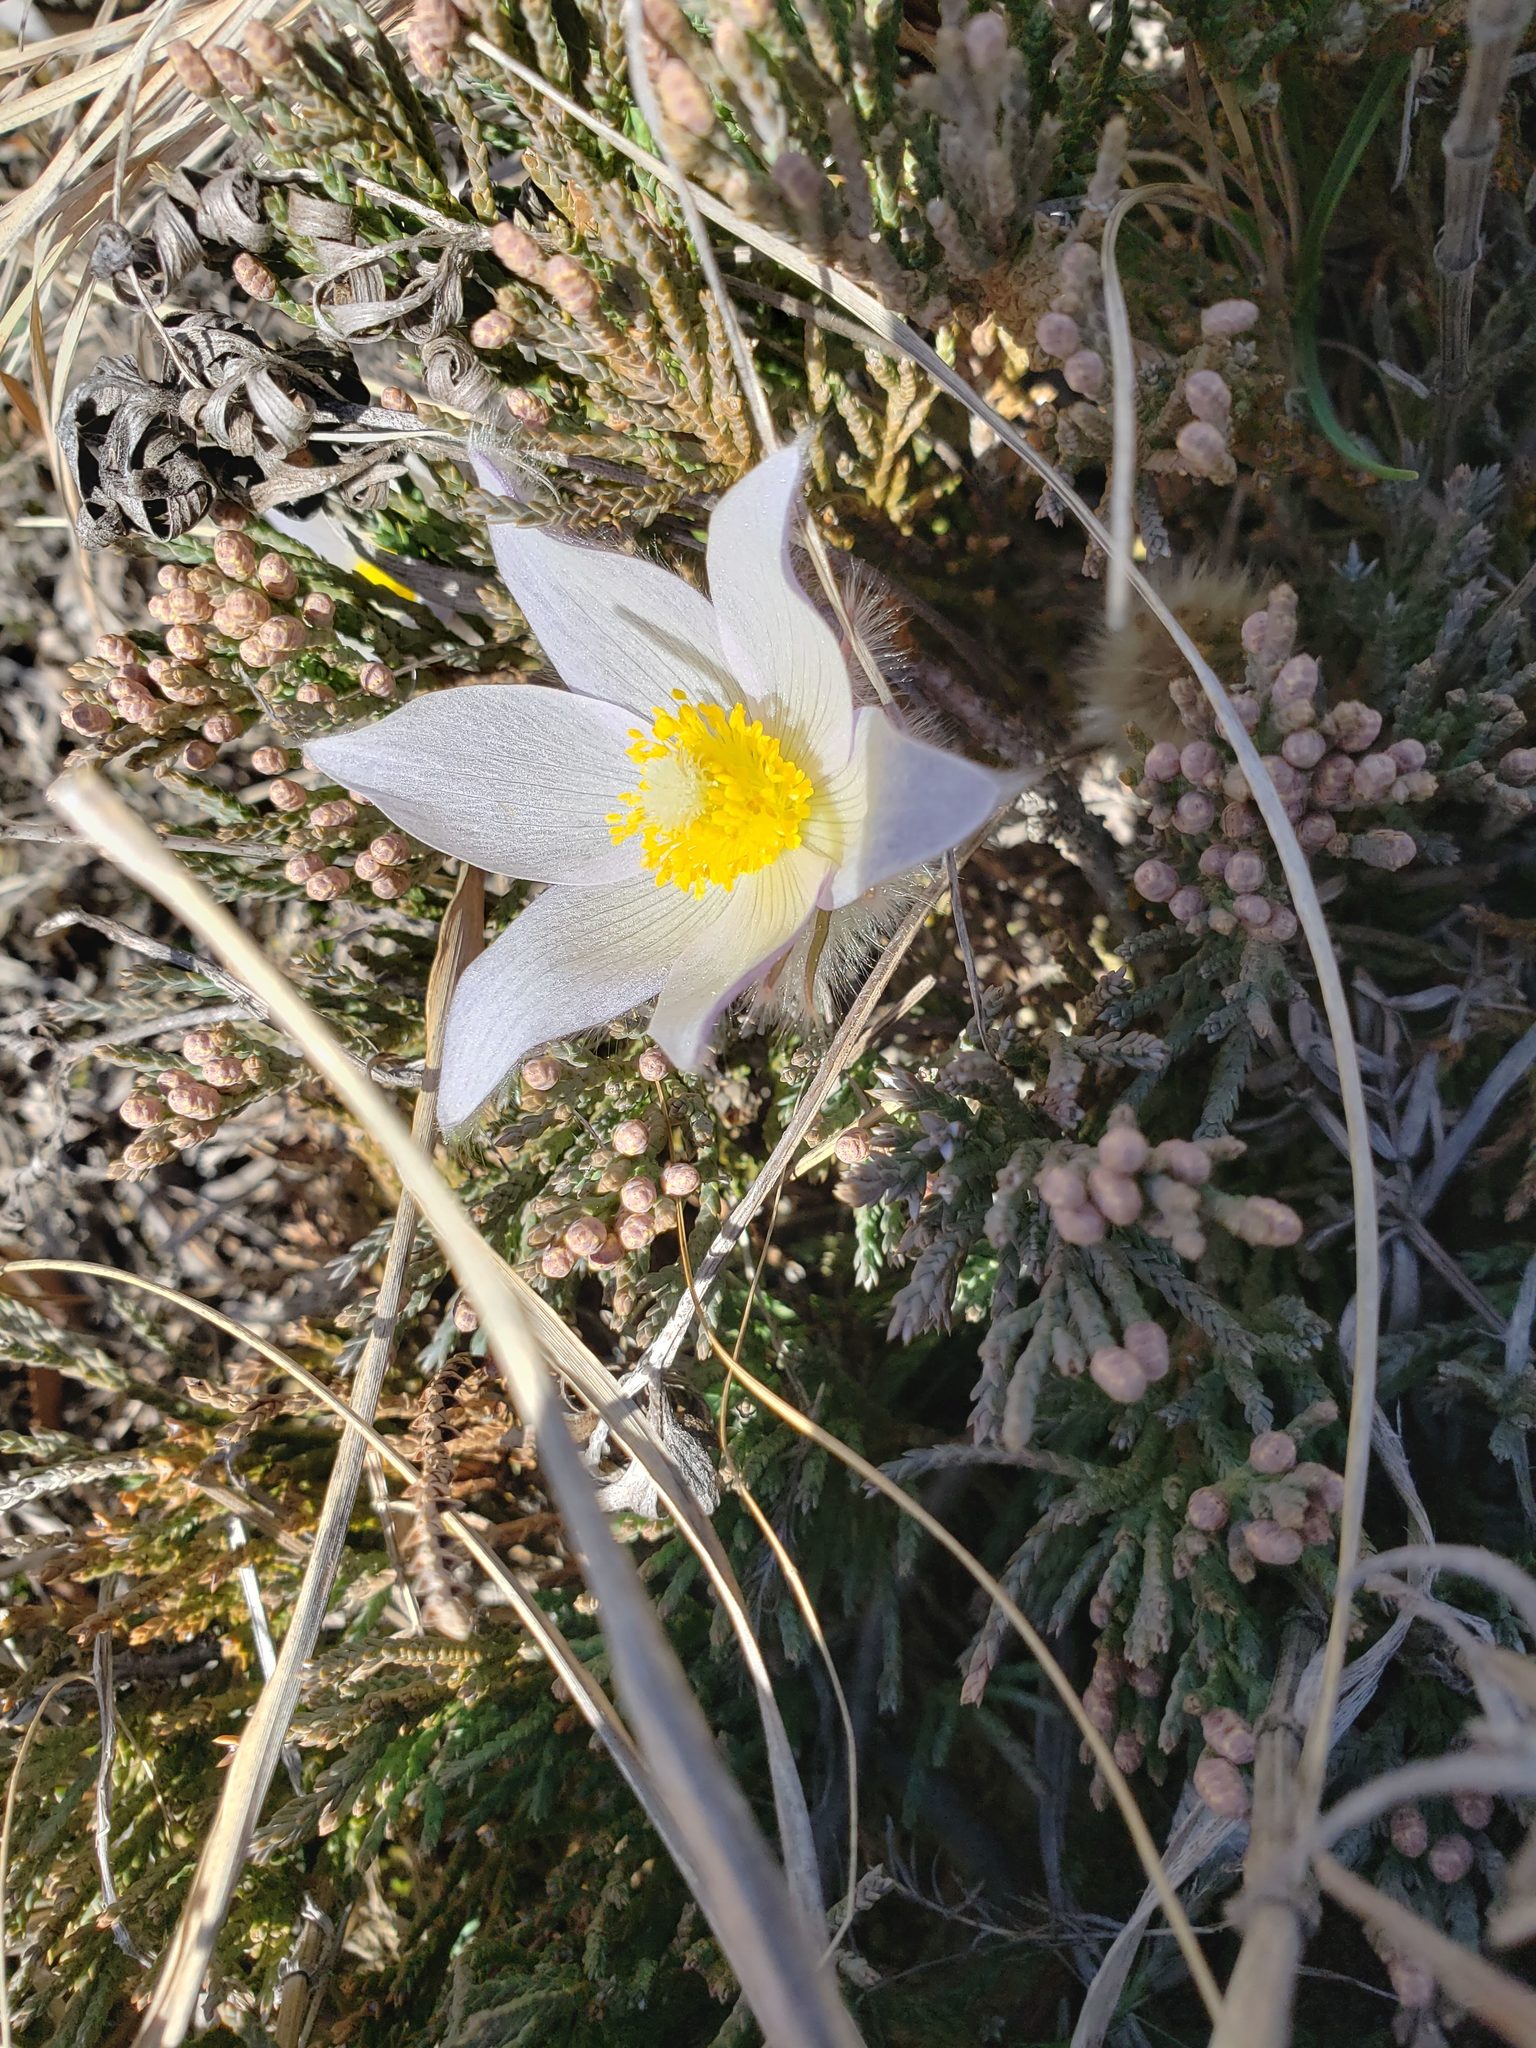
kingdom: Plantae
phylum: Tracheophyta
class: Magnoliopsida
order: Ranunculales
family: Ranunculaceae
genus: Pulsatilla
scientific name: Pulsatilla nuttalliana
